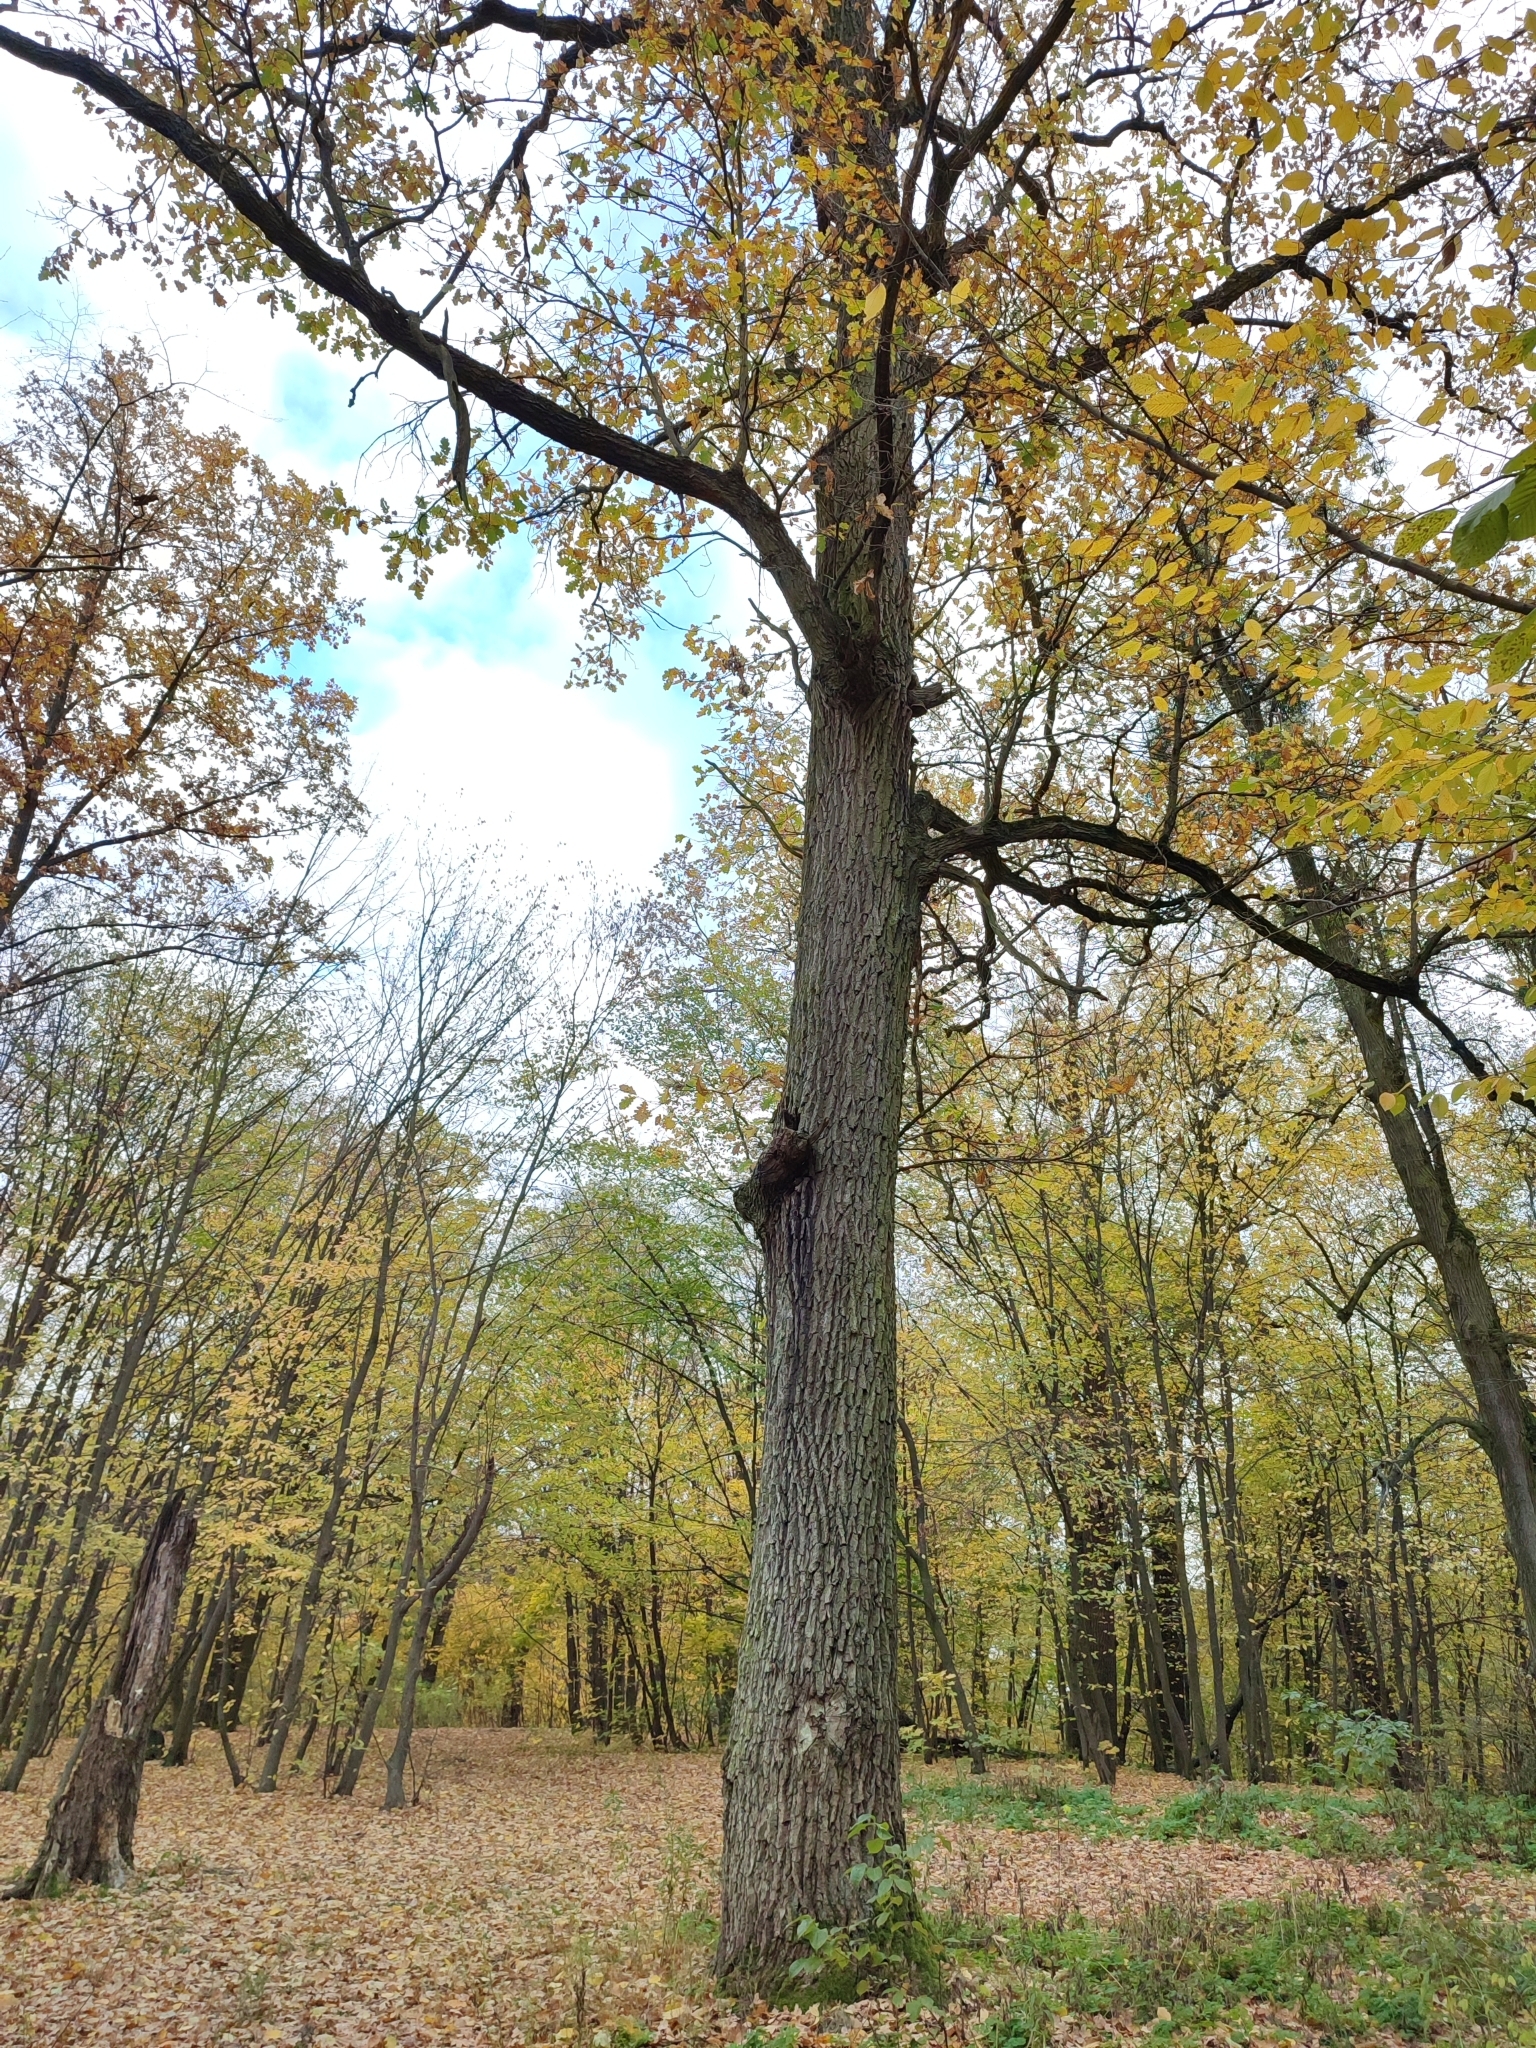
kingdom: Plantae
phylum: Tracheophyta
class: Magnoliopsida
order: Fagales
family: Fagaceae
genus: Quercus
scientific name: Quercus robur
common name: Pedunculate oak
